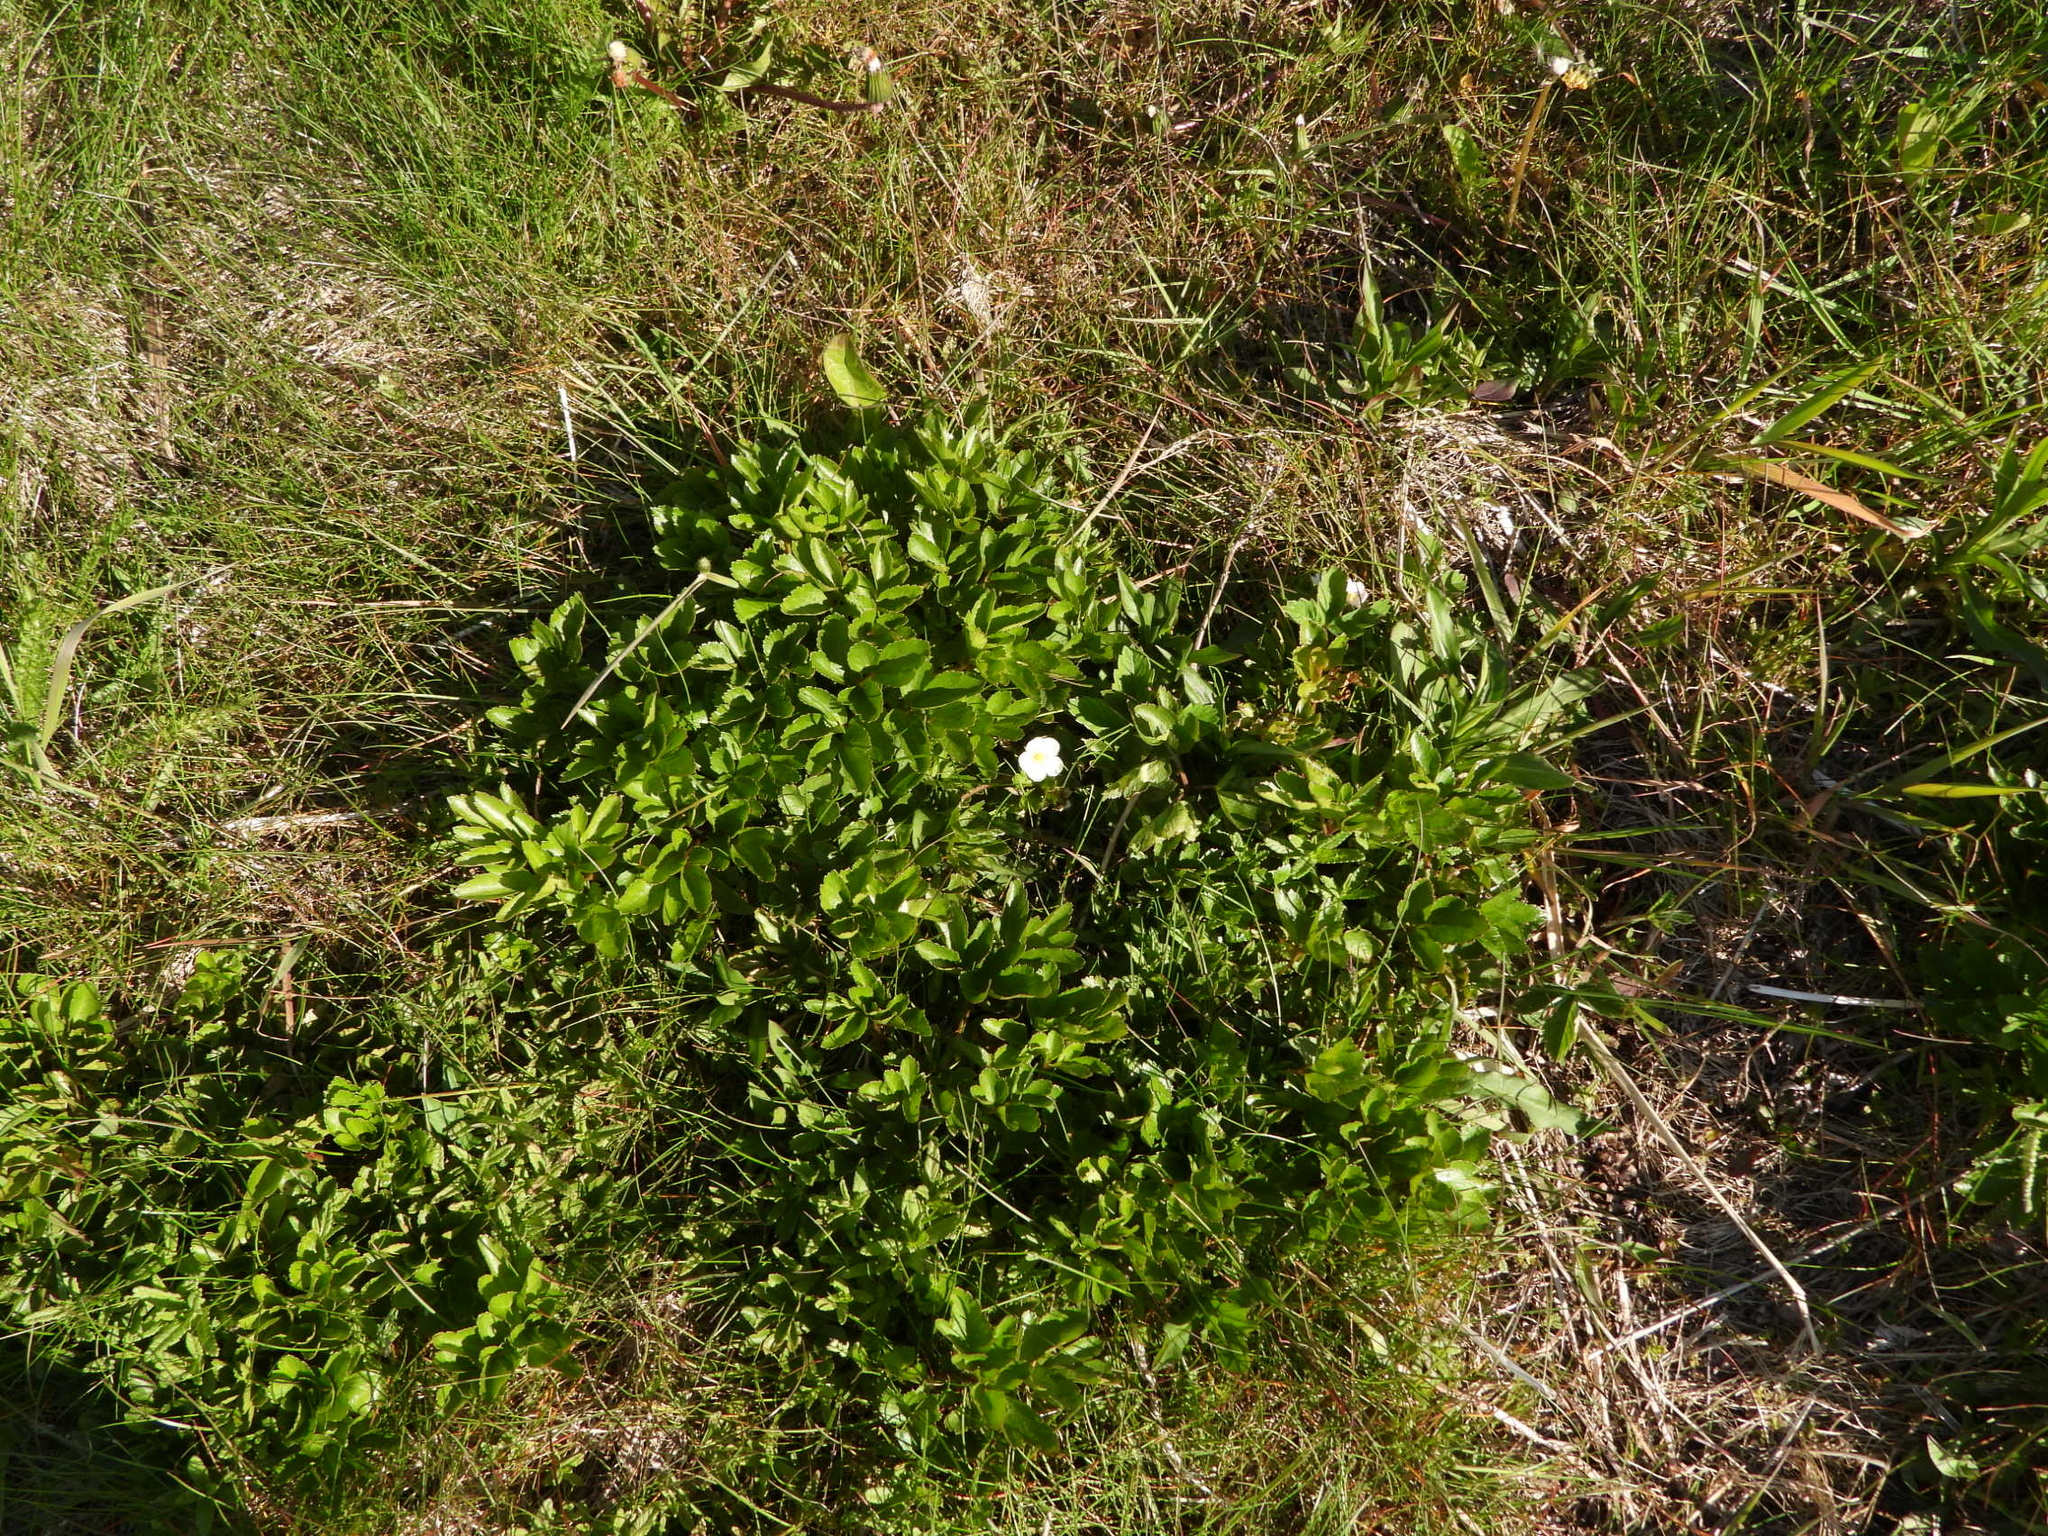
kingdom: Plantae
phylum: Tracheophyta
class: Magnoliopsida
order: Rosales
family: Rosaceae
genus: Fragaria
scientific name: Fragaria virginiana
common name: Thickleaved wild strawberry
